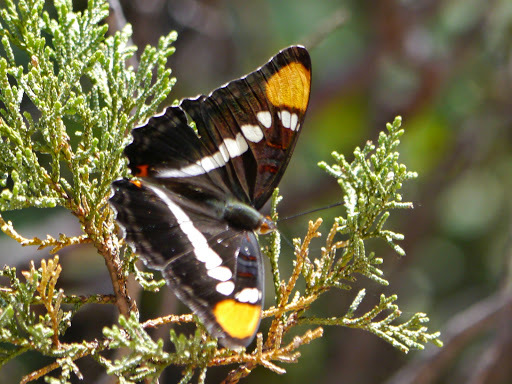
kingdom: Animalia
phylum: Arthropoda
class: Insecta
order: Lepidoptera
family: Nymphalidae
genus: Limenitis
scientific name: Limenitis bredowii
